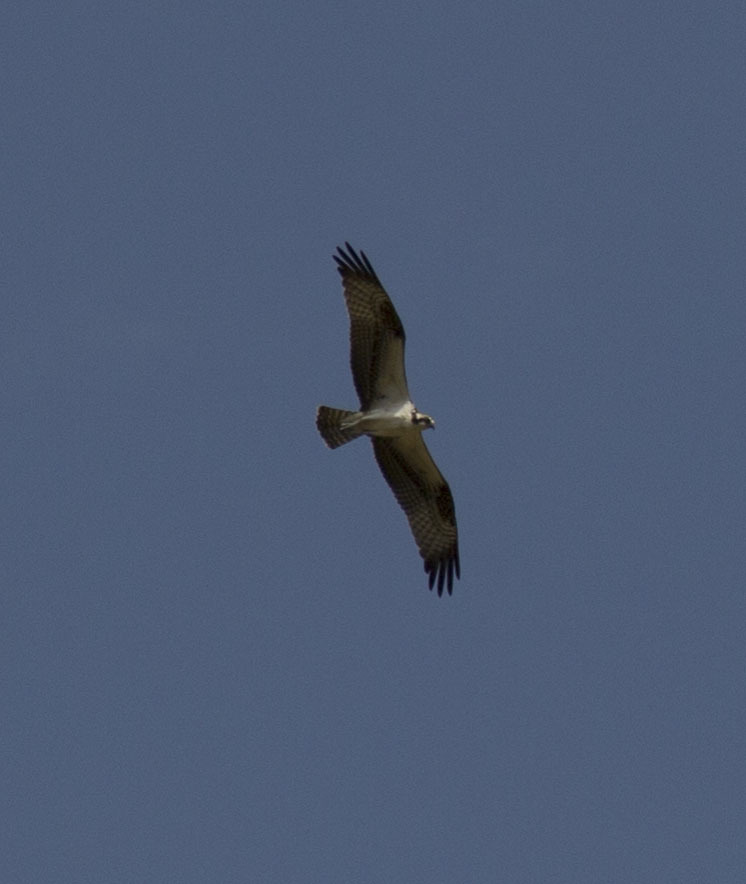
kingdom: Animalia
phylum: Chordata
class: Aves
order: Accipitriformes
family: Pandionidae
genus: Pandion
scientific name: Pandion haliaetus
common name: Osprey
